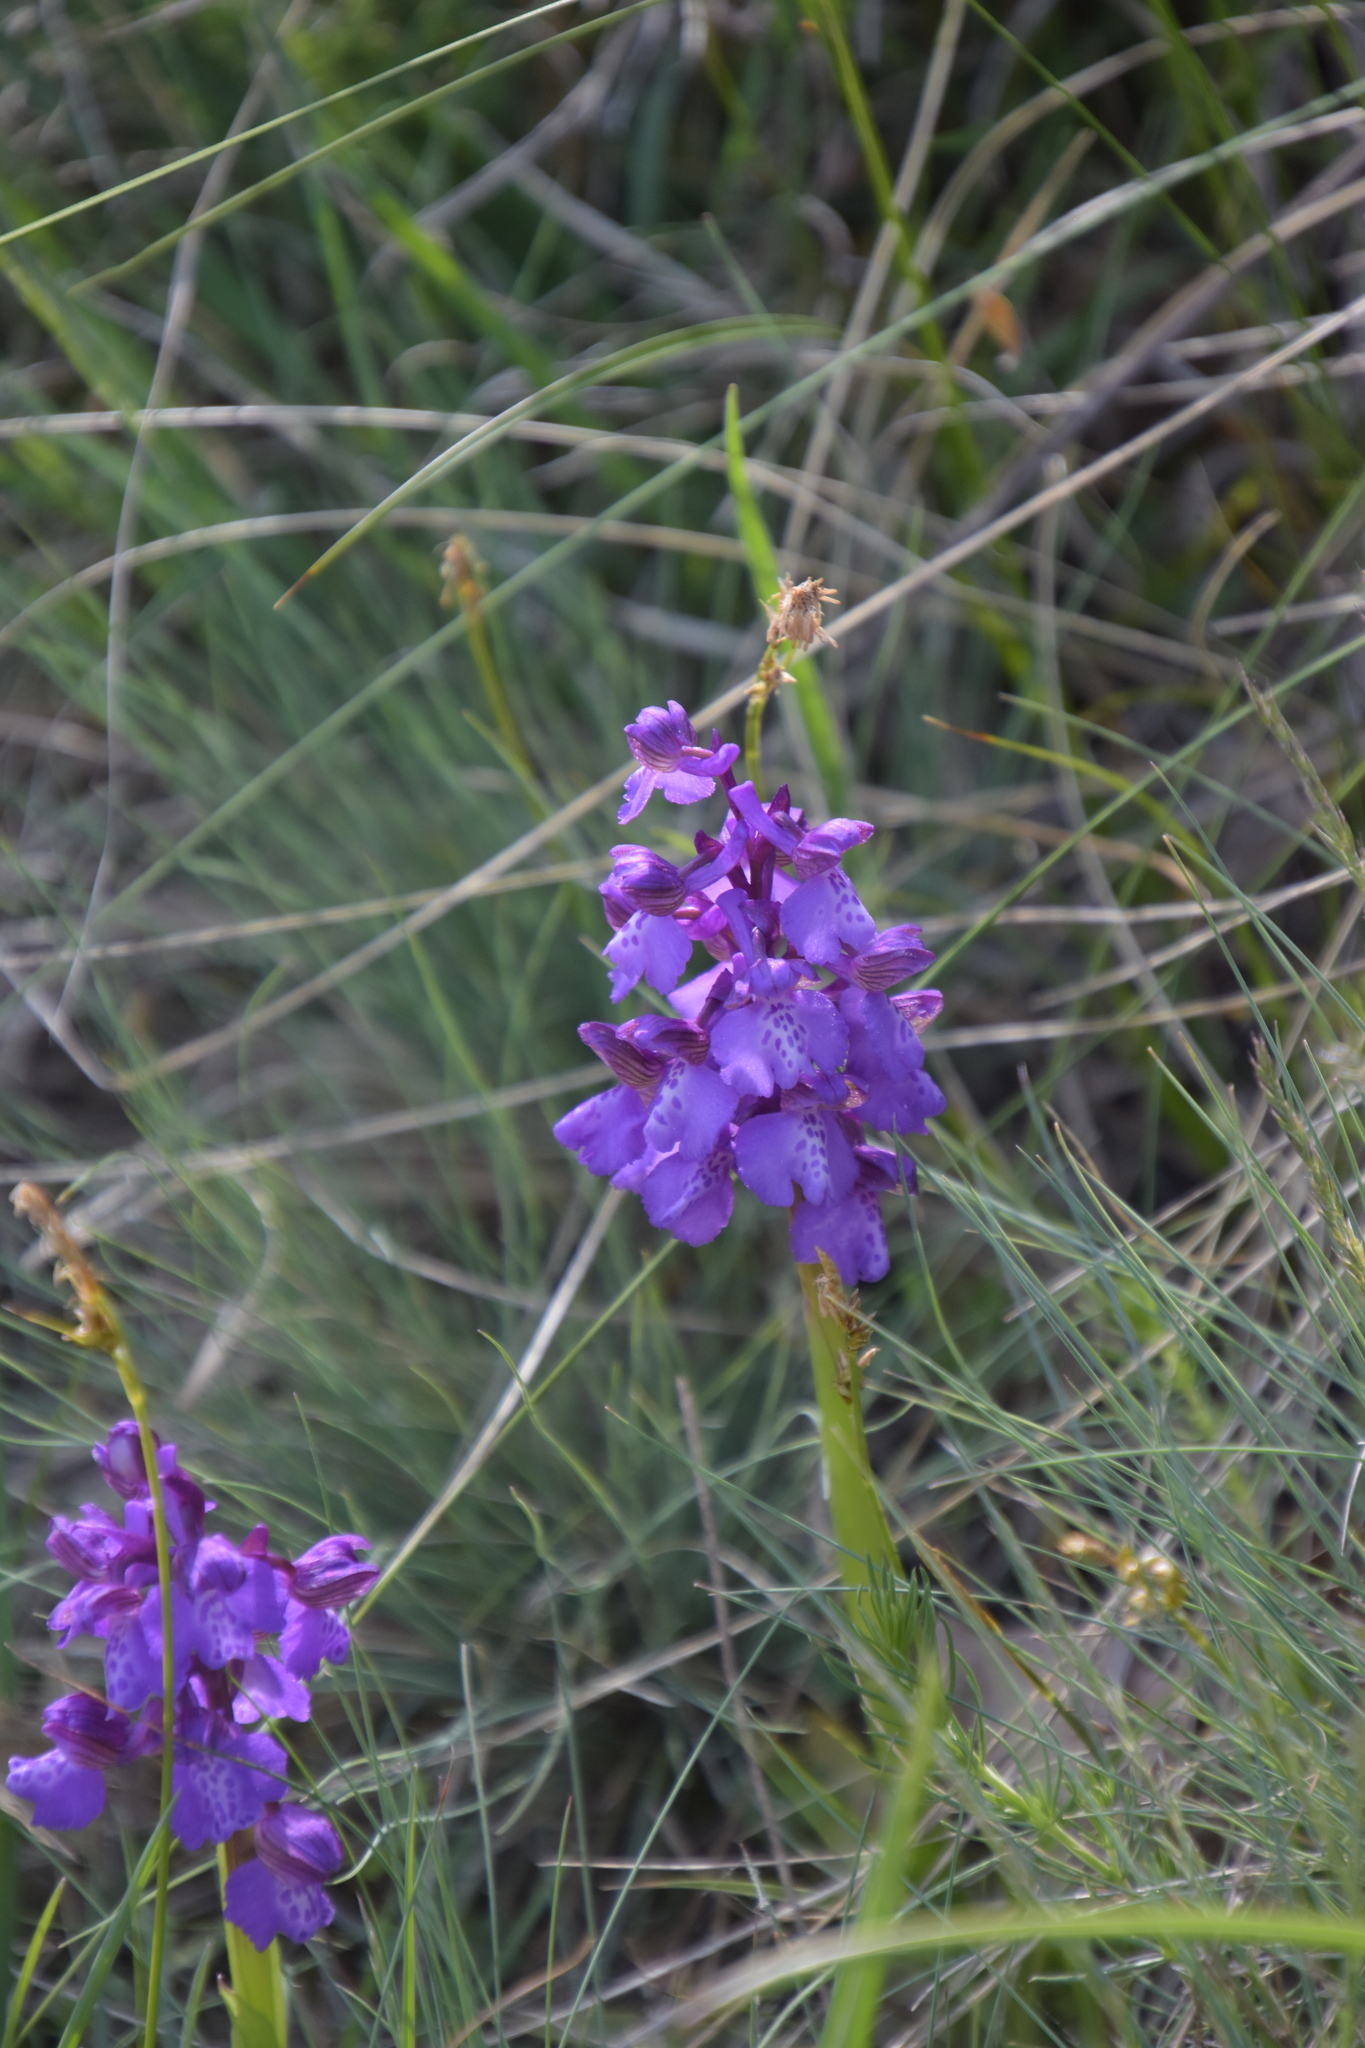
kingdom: Plantae
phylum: Tracheophyta
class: Liliopsida
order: Asparagales
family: Orchidaceae
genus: Anacamptis
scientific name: Anacamptis morio
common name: Green-winged orchid
